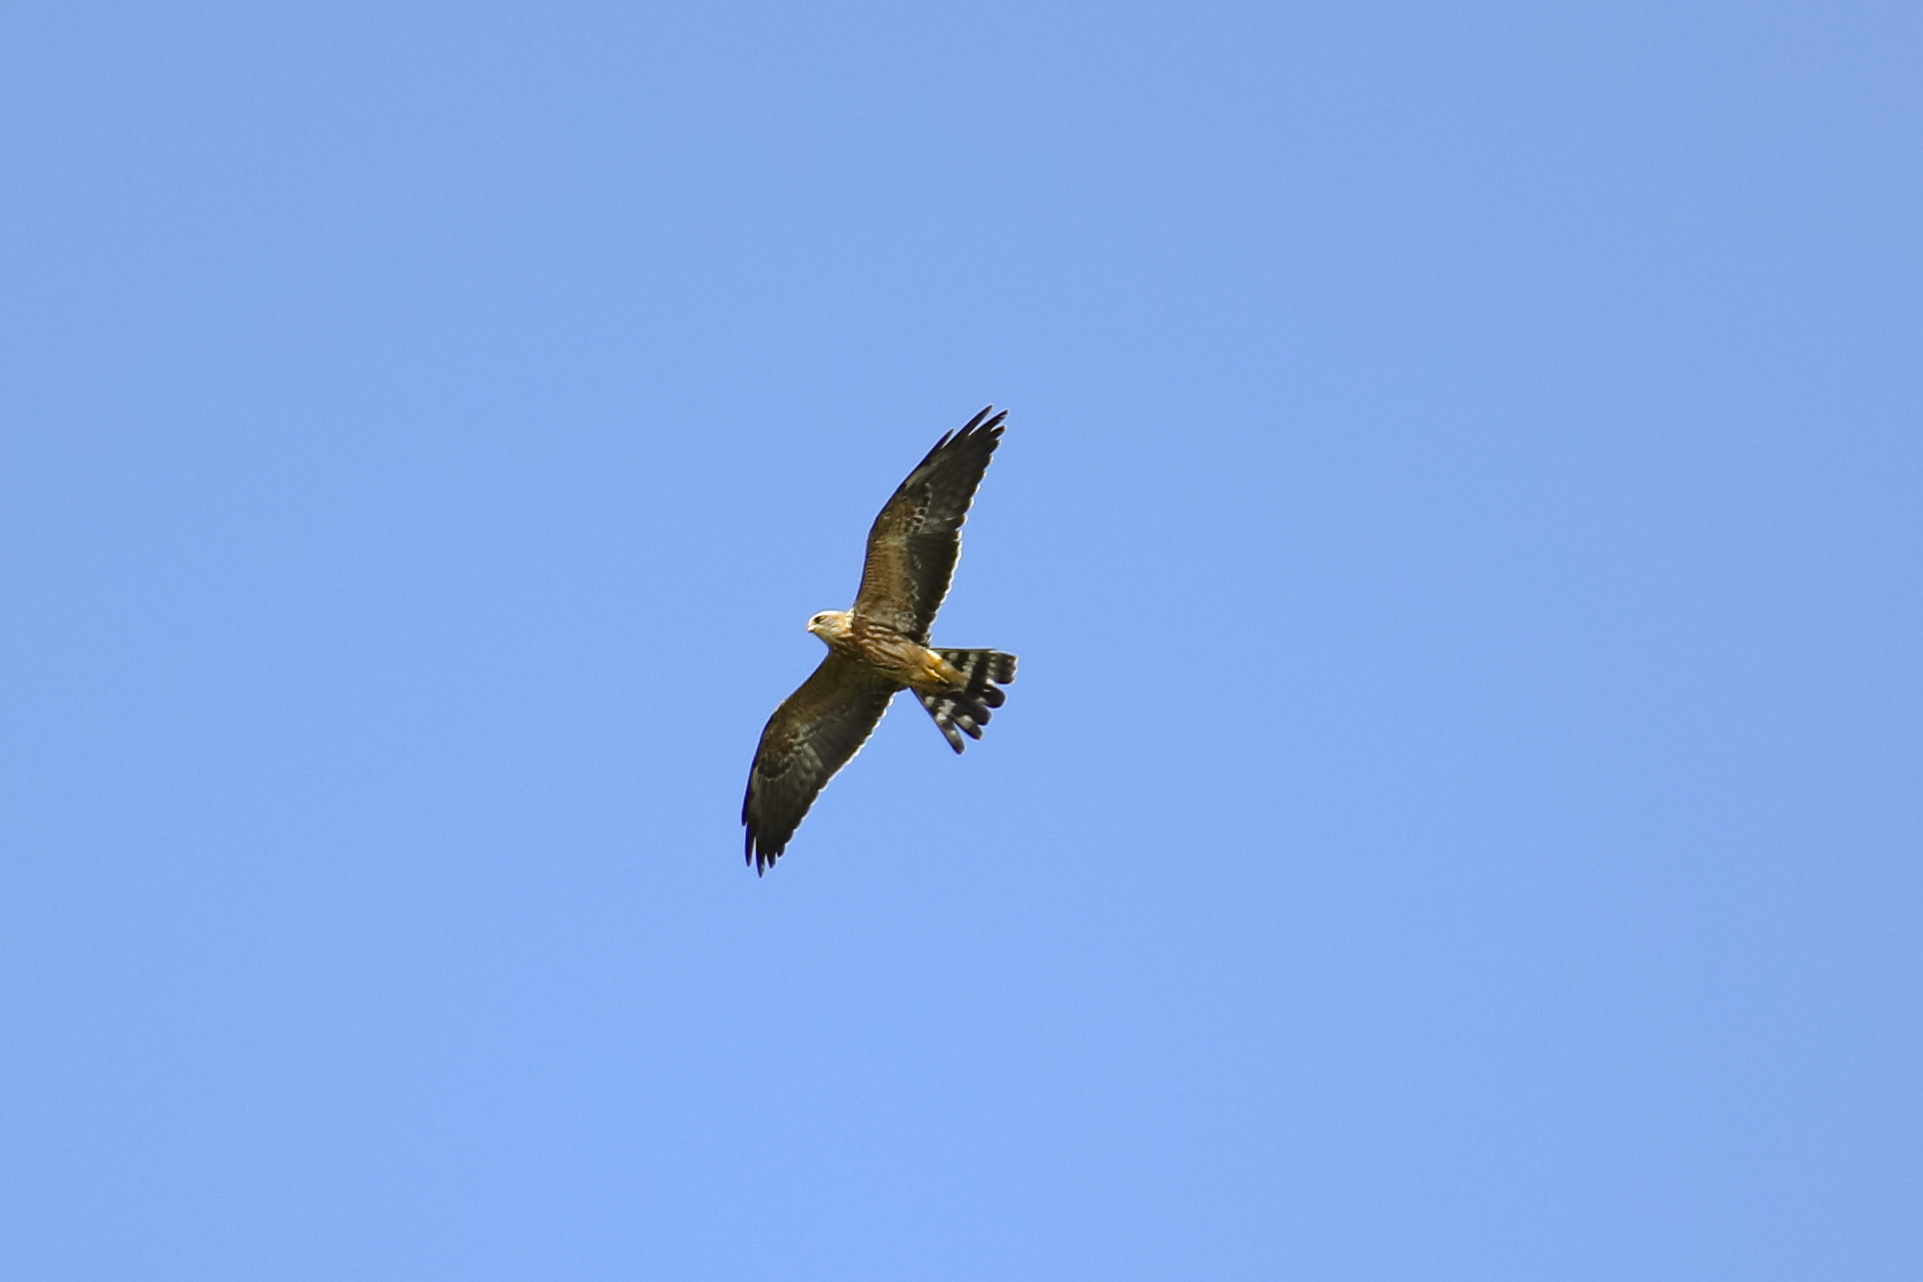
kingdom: Animalia
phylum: Chordata
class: Aves
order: Accipitriformes
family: Accipitridae
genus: Ictinia
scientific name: Ictinia mississippiensis
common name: Mississippi kite
